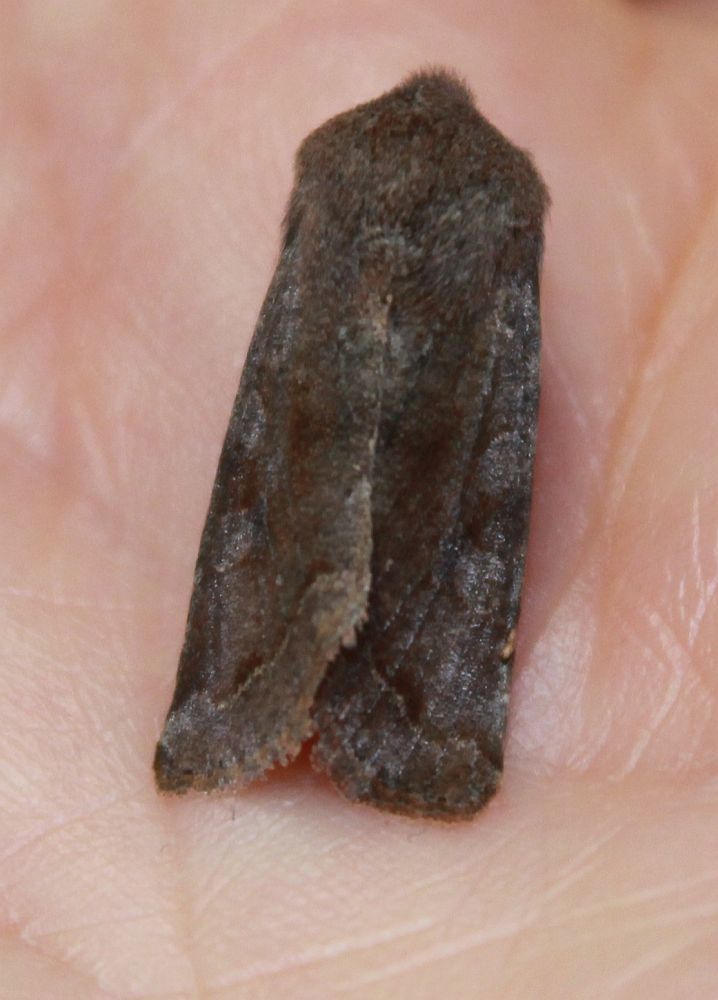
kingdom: Animalia
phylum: Arthropoda
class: Insecta
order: Lepidoptera
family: Noctuidae
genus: Orthosia
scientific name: Orthosia incerta
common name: Clouded drab
